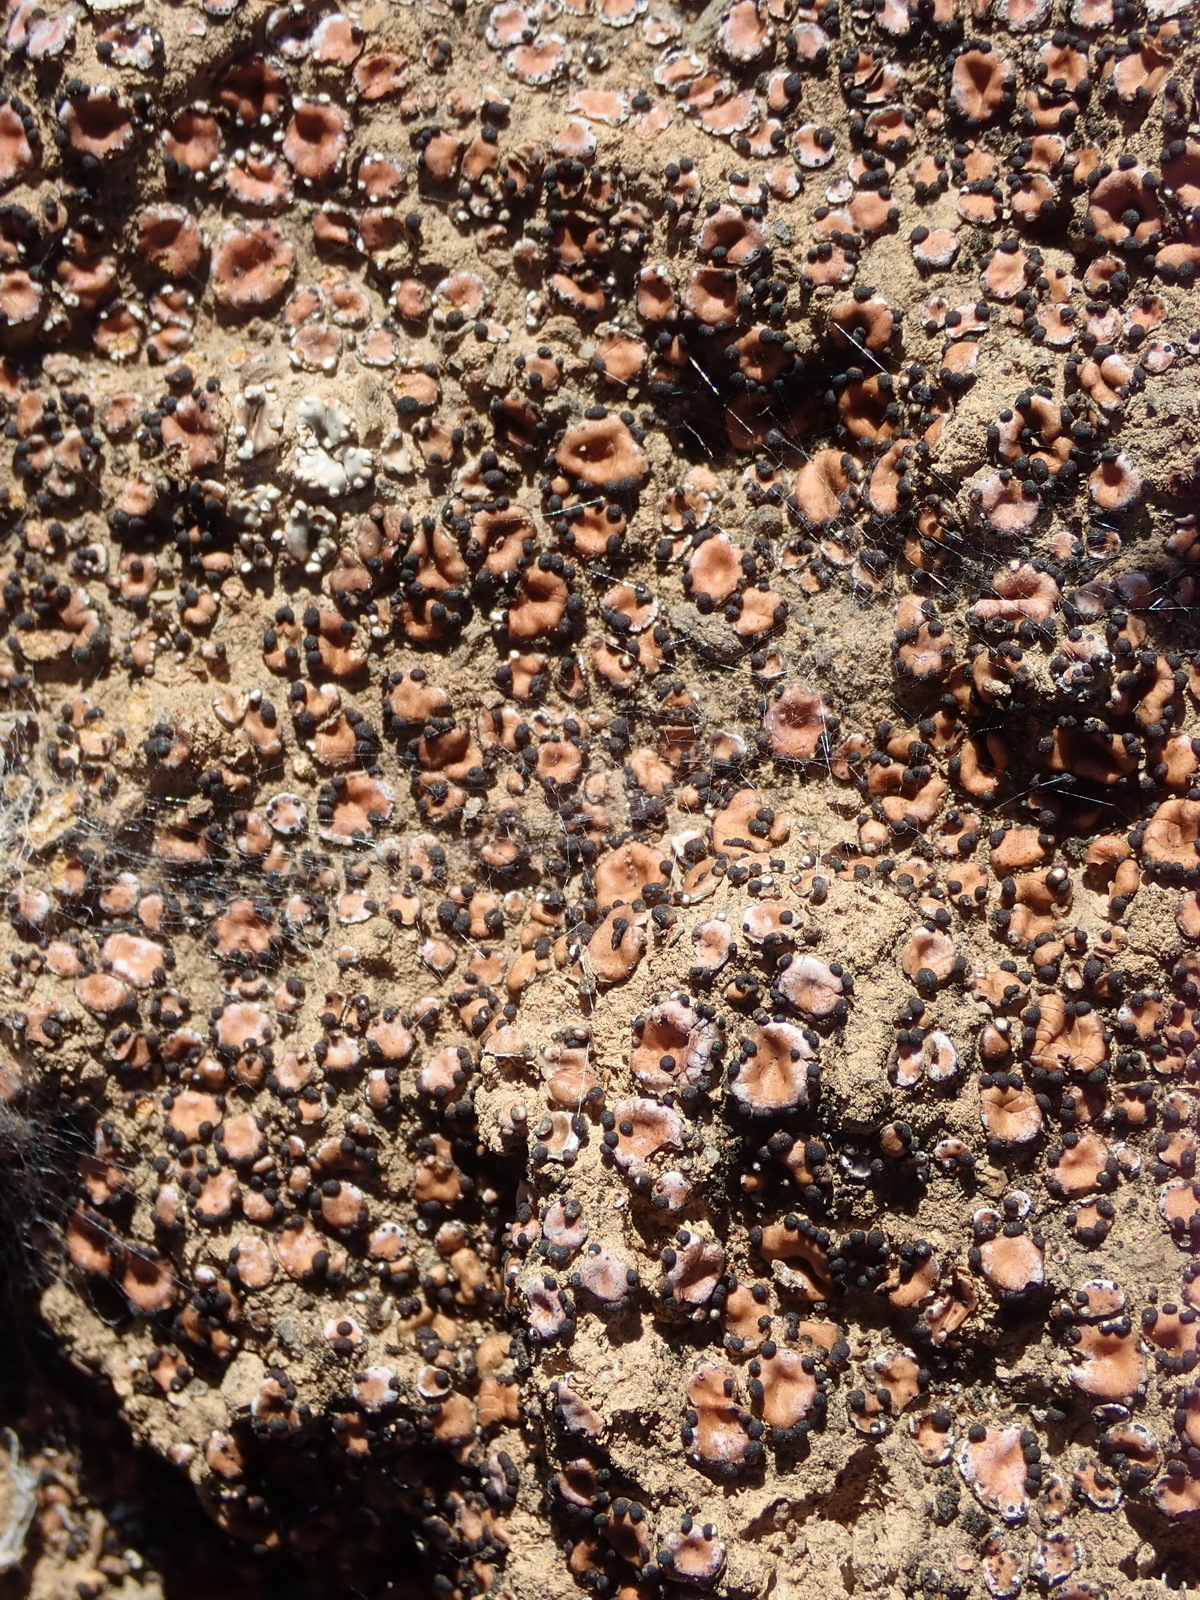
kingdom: Fungi
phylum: Ascomycota
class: Lecanoromycetes
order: Lecanorales
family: Psoraceae
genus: Psora
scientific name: Psora crenata
